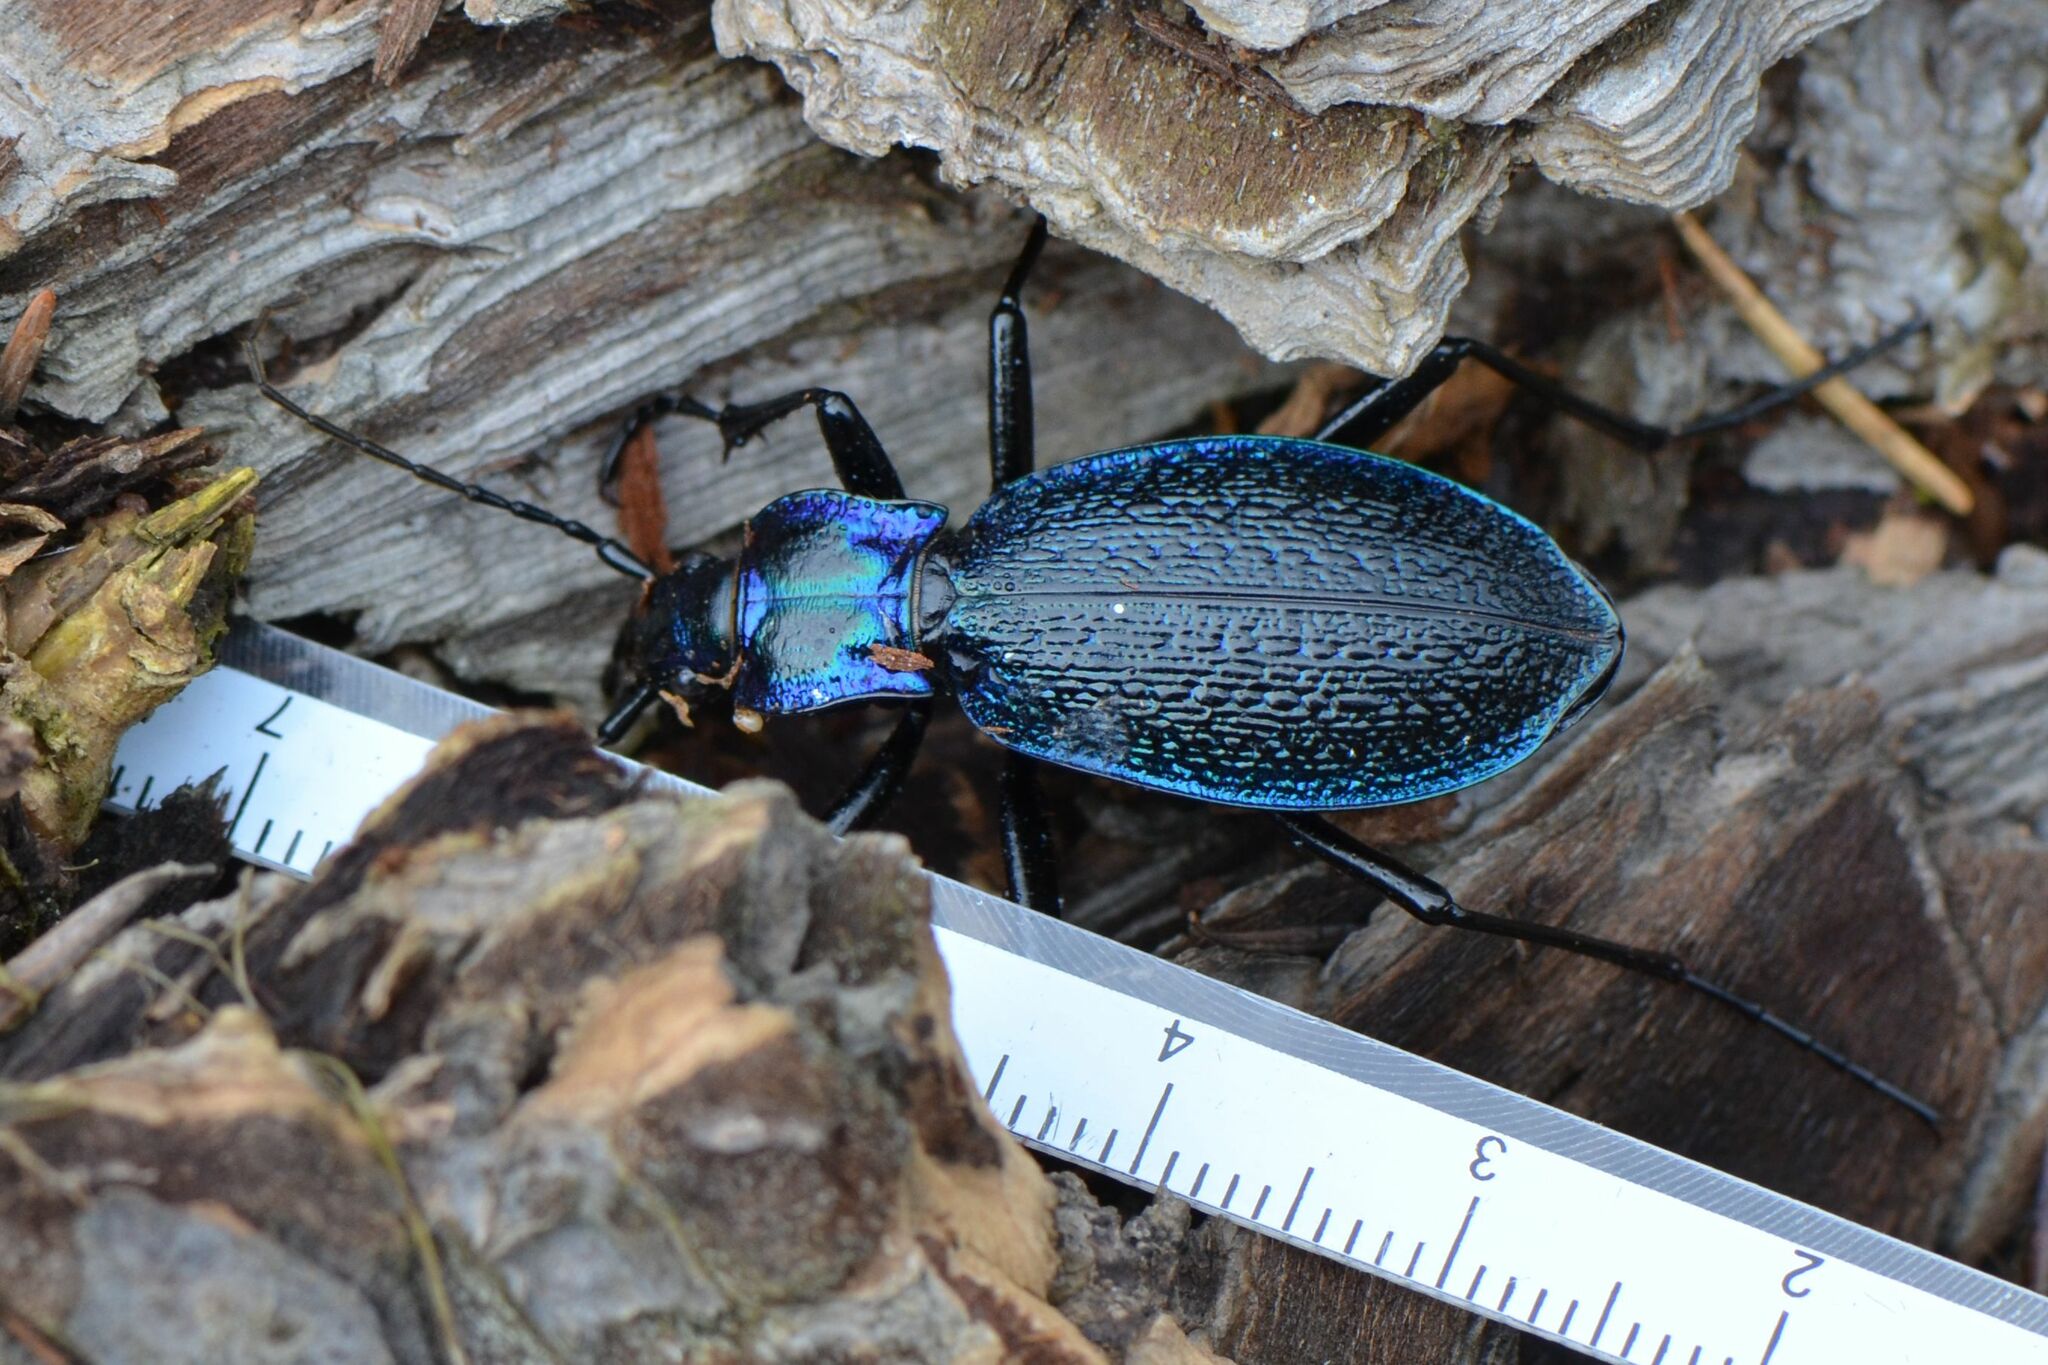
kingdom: Animalia
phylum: Arthropoda
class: Insecta
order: Coleoptera
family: Carabidae
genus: Carabus
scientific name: Carabus intricatus
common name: Blue ground beetle
